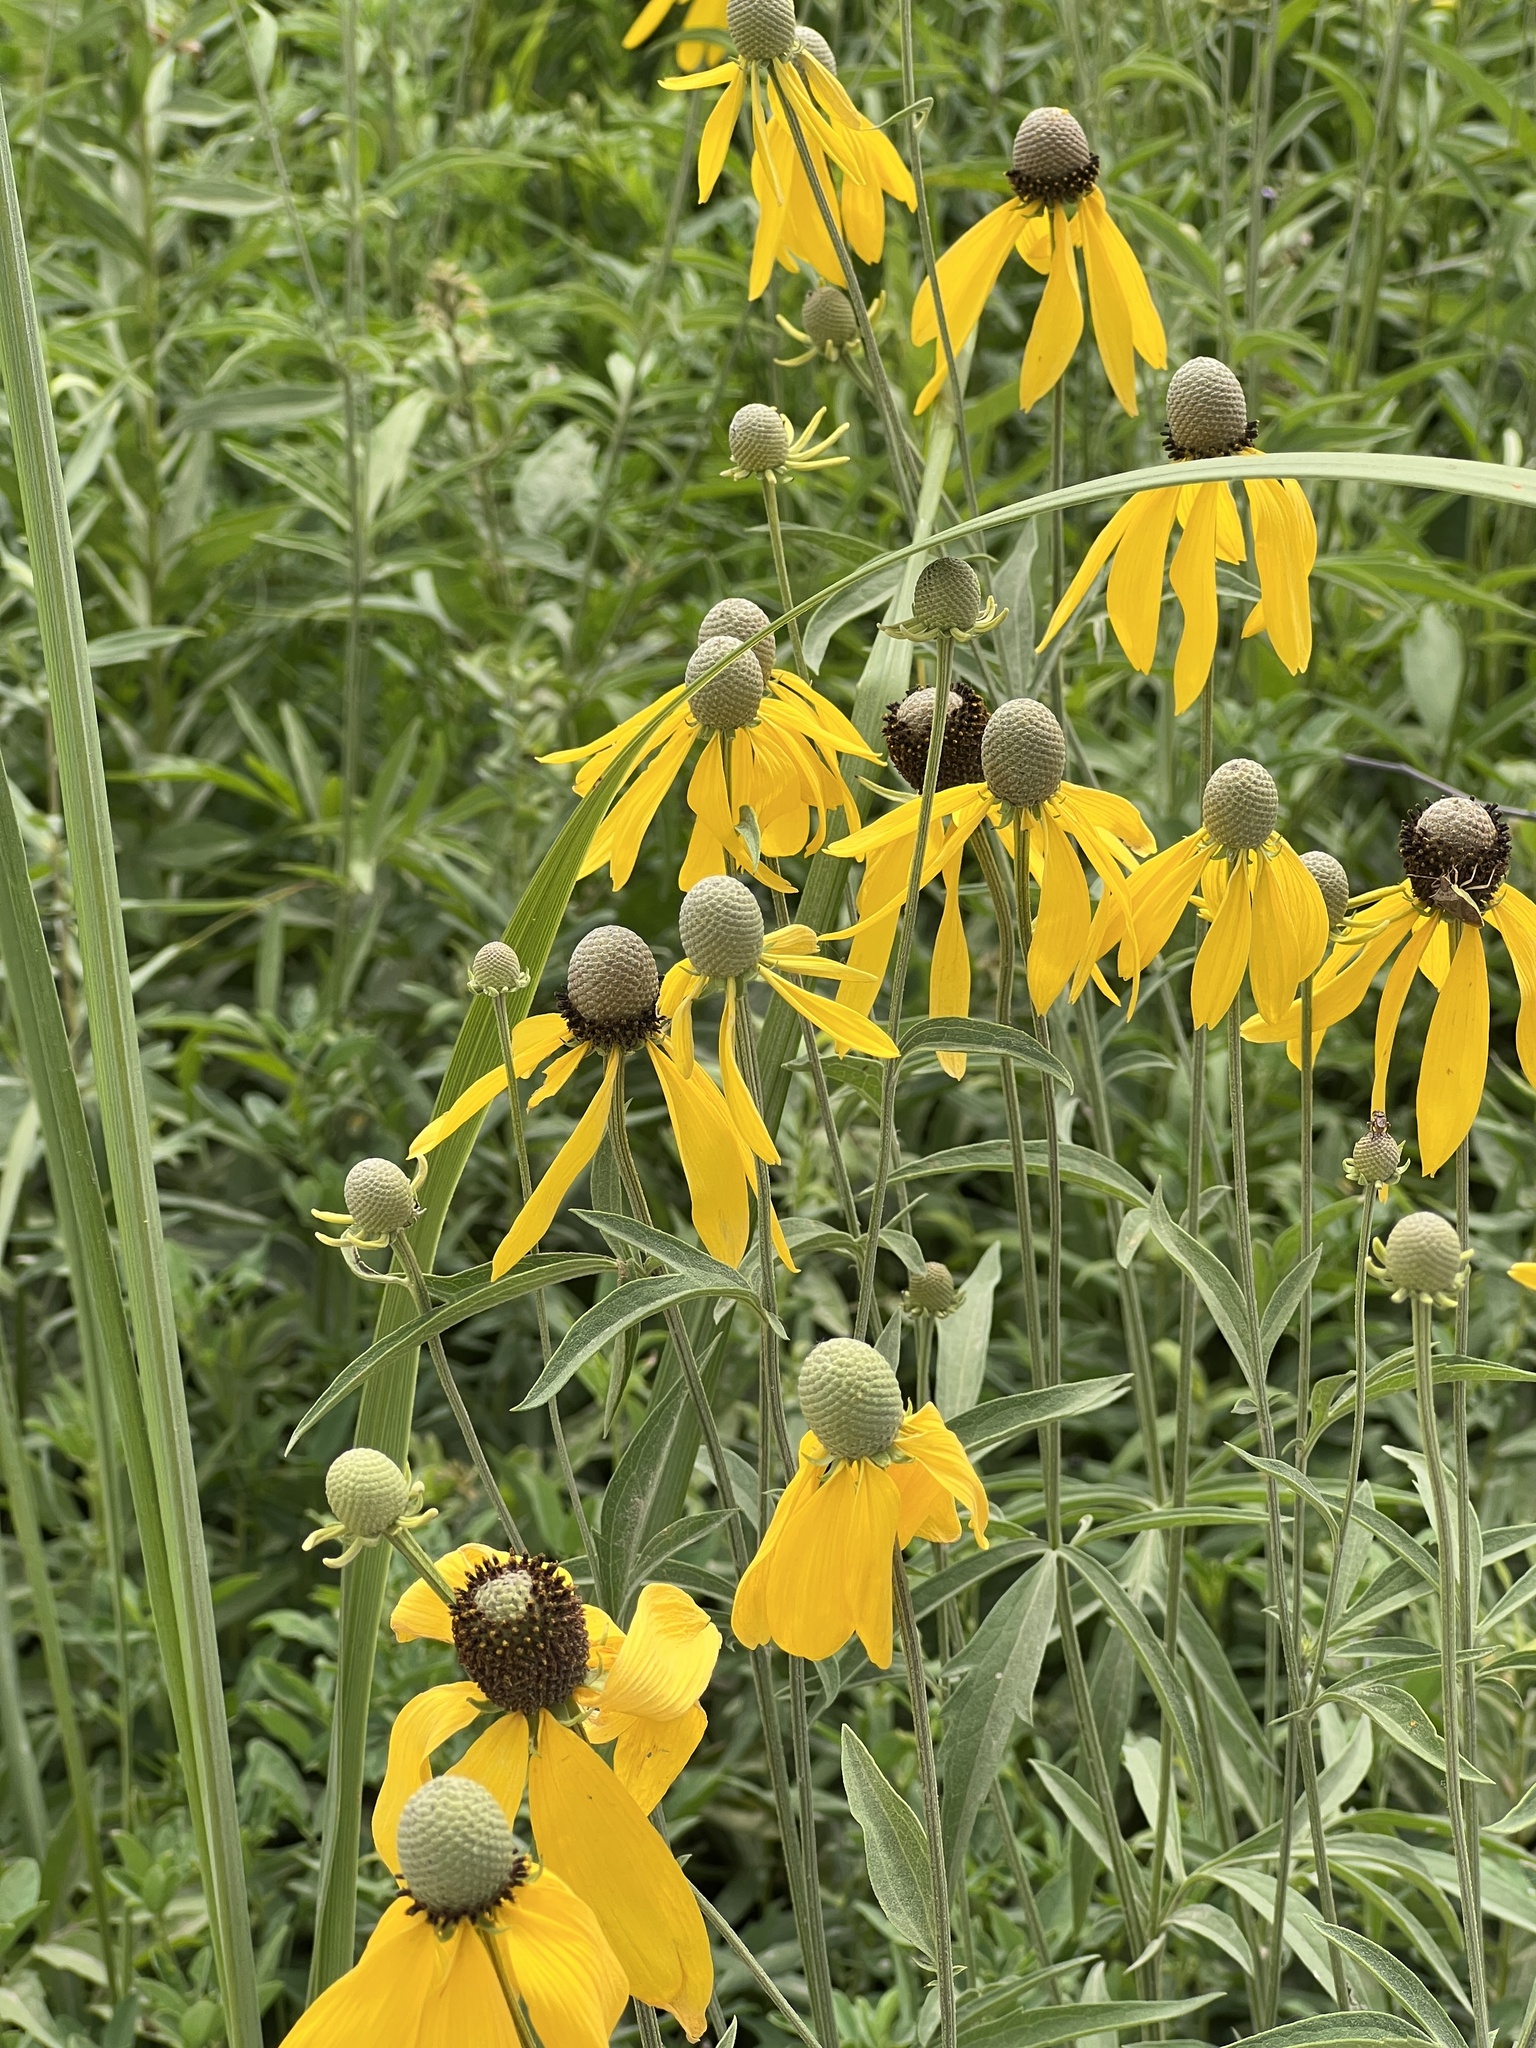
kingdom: Plantae
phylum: Tracheophyta
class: Magnoliopsida
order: Asterales
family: Asteraceae
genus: Ratibida
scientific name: Ratibida pinnata
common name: Drooping prairie-coneflower
